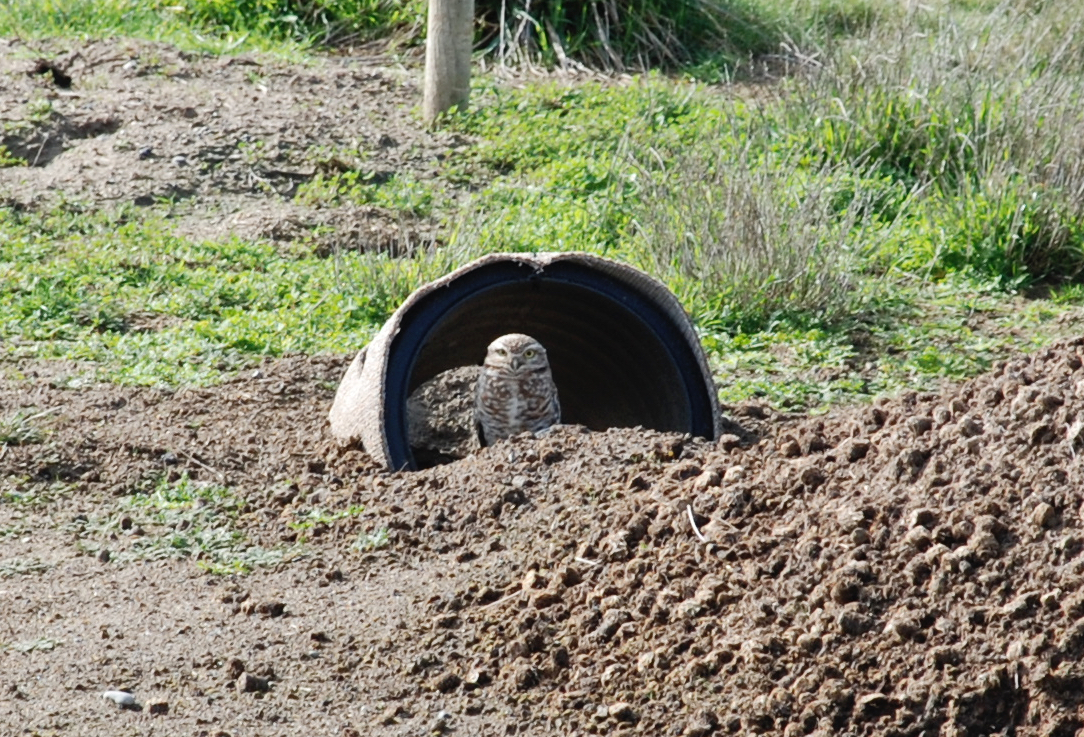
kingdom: Animalia
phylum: Chordata
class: Aves
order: Strigiformes
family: Strigidae
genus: Athene
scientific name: Athene cunicularia
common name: Burrowing owl
